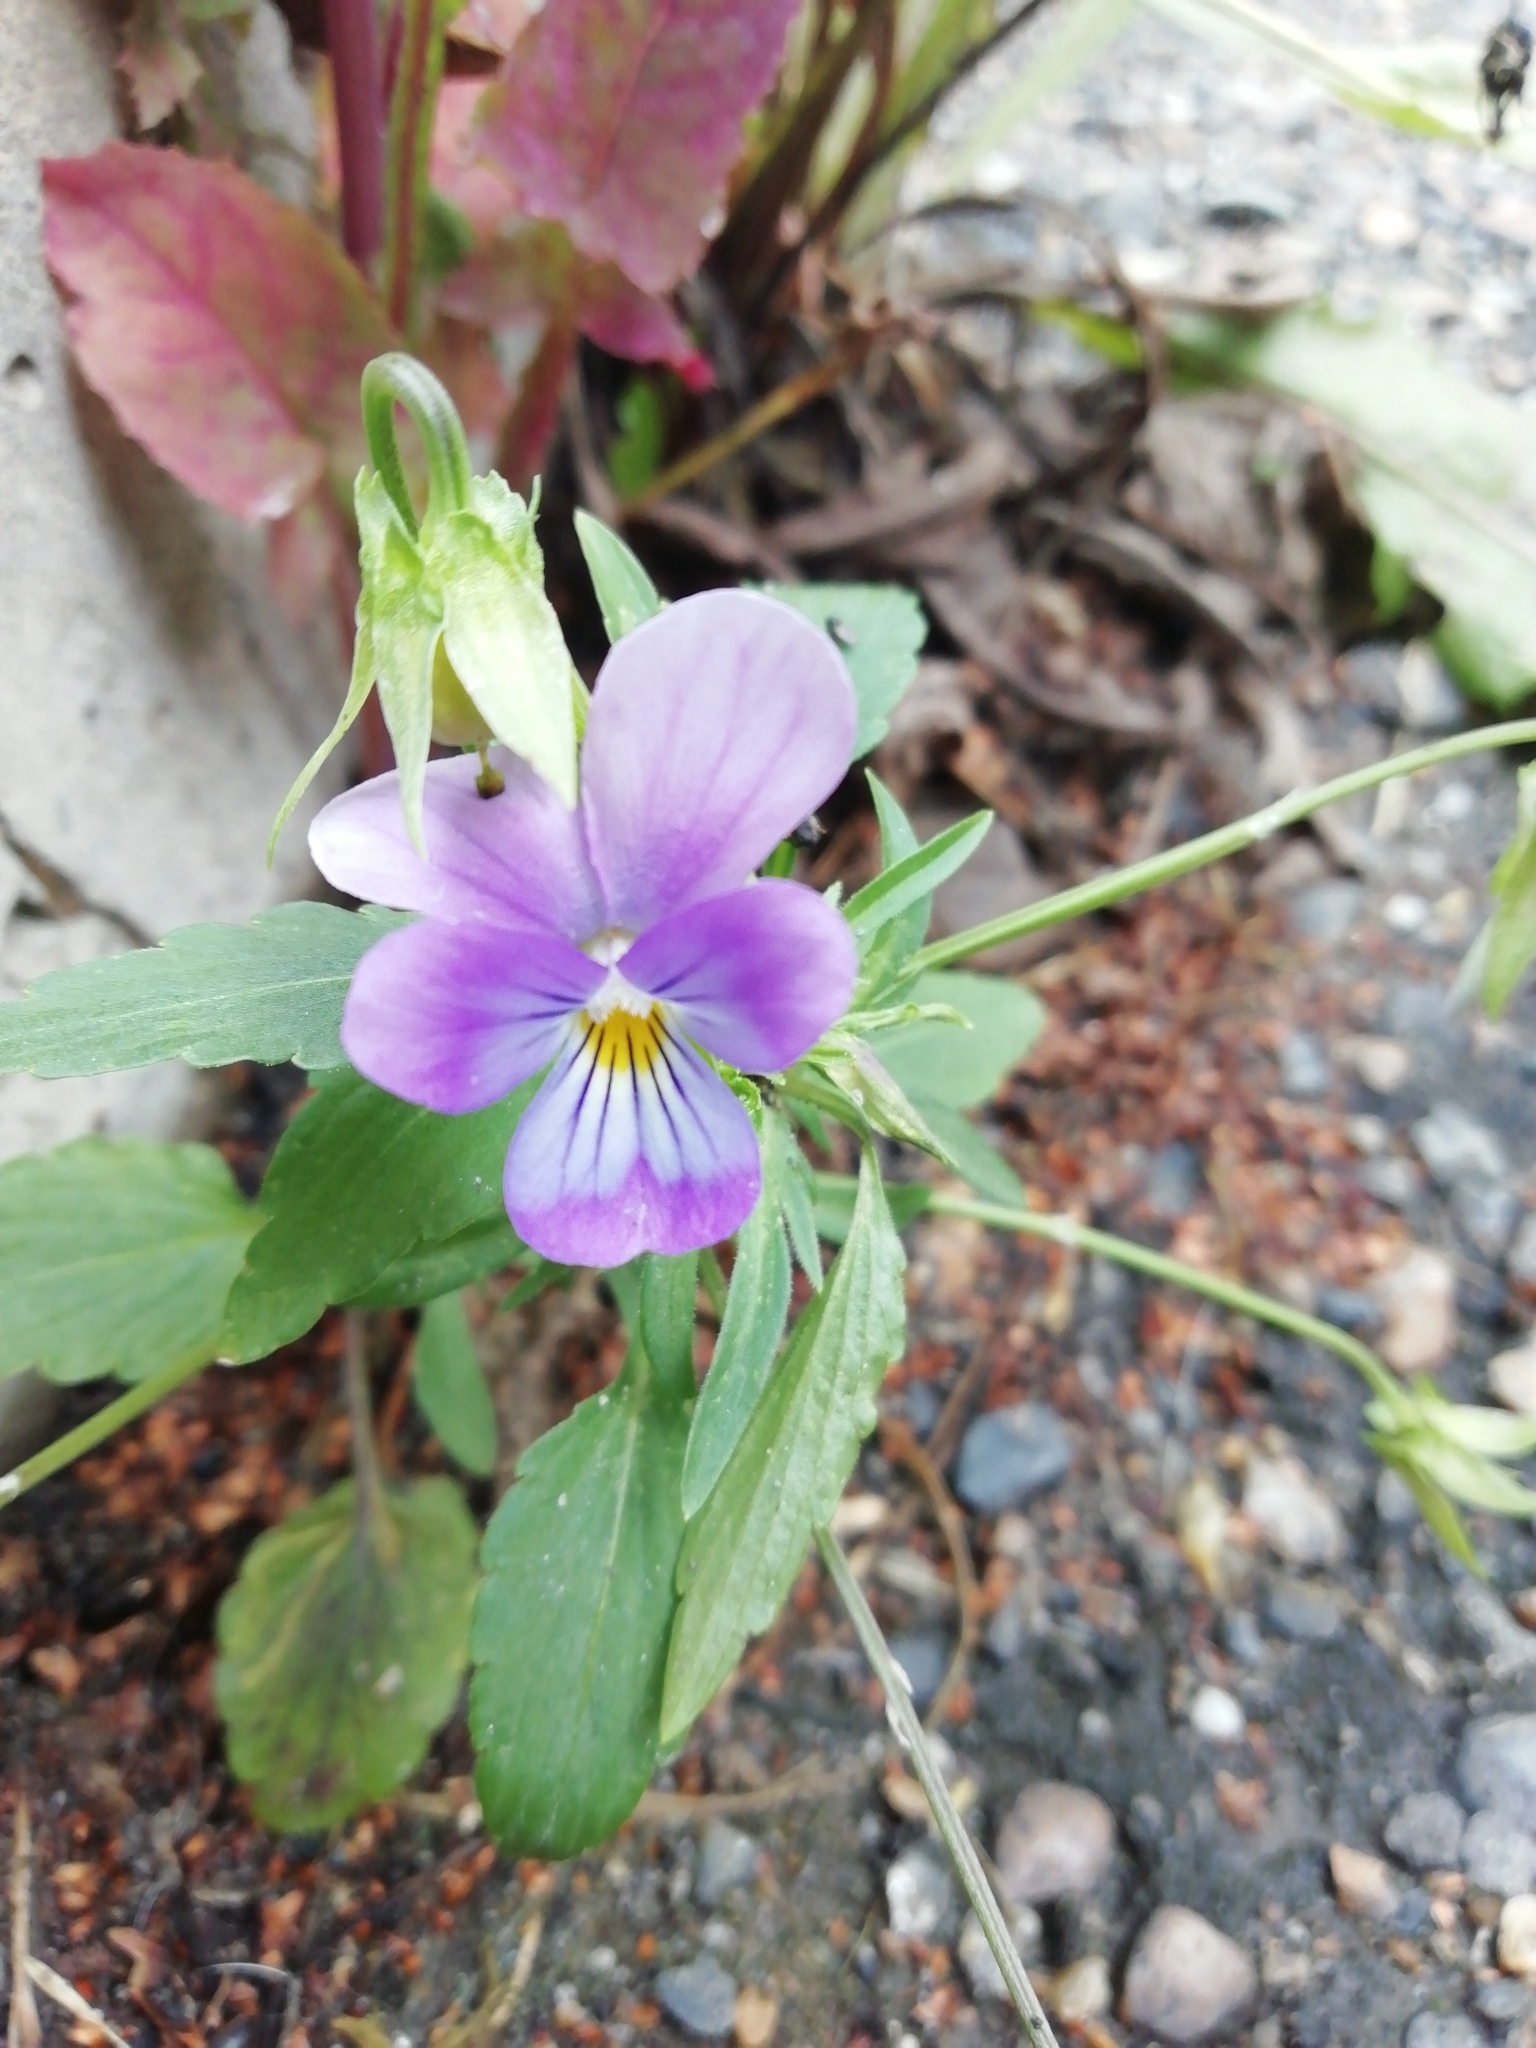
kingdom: Plantae
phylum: Tracheophyta
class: Magnoliopsida
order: Malpighiales
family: Violaceae
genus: Viola
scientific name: Viola tricolor
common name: Pansy
